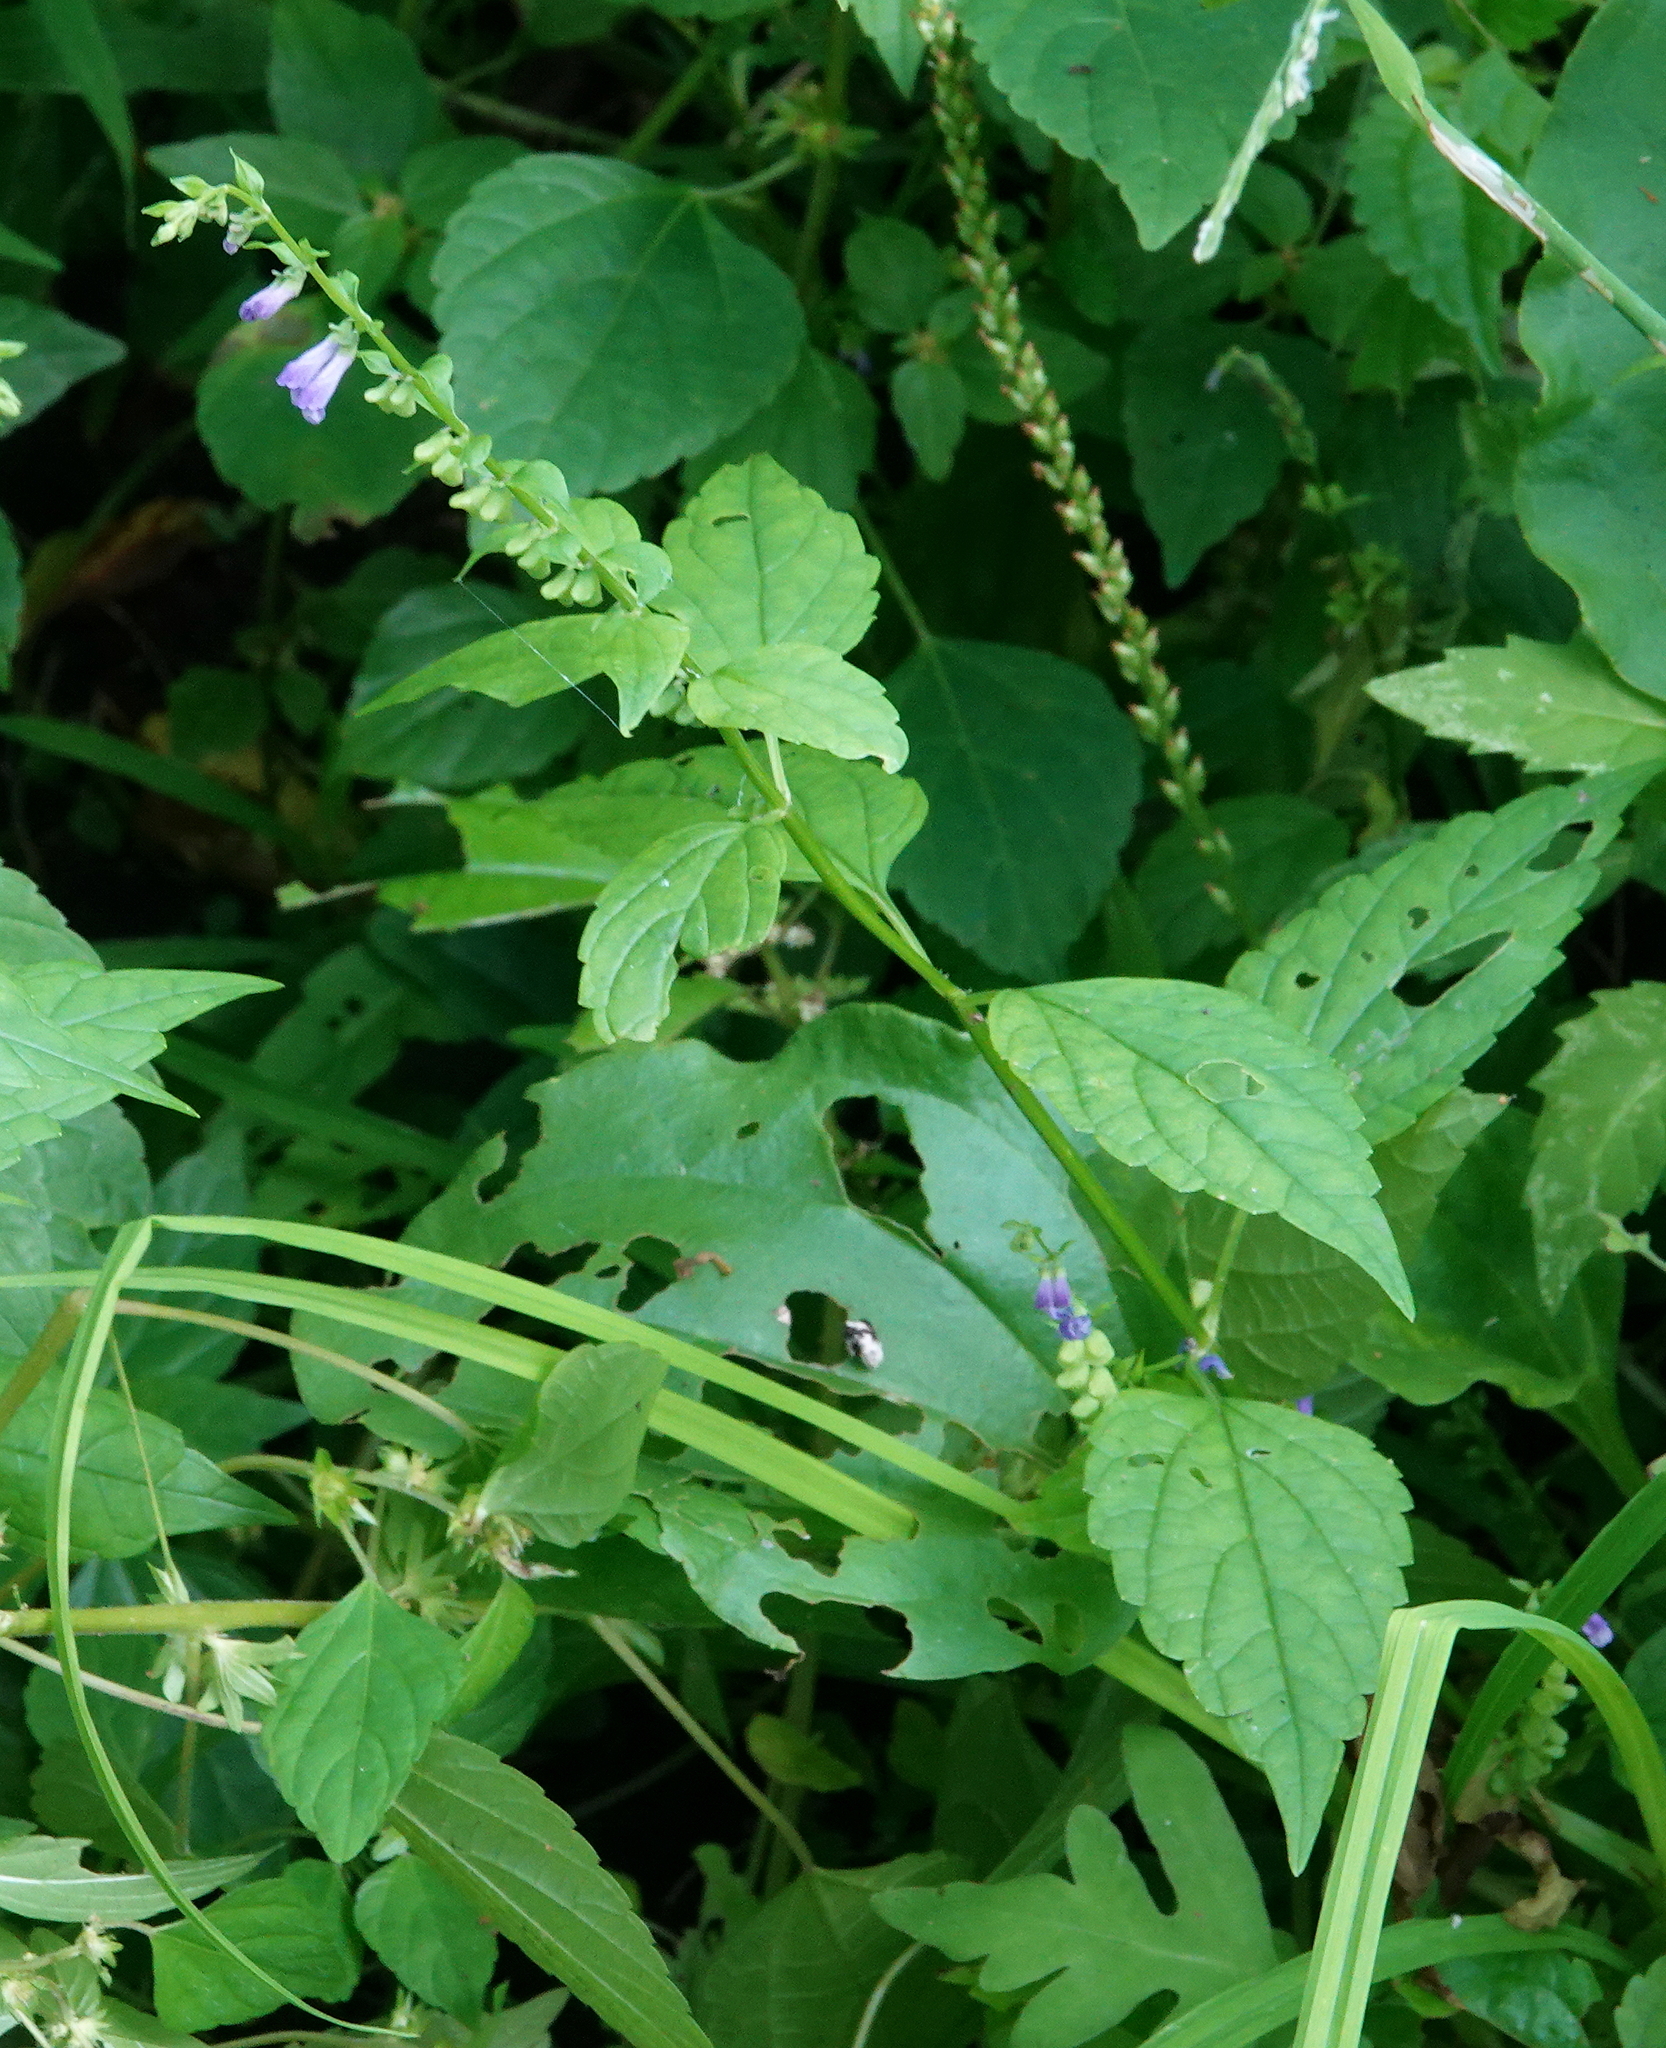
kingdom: Plantae
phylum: Tracheophyta
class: Magnoliopsida
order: Lamiales
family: Lamiaceae
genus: Scutellaria
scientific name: Scutellaria lateriflora
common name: Blue skullcap
